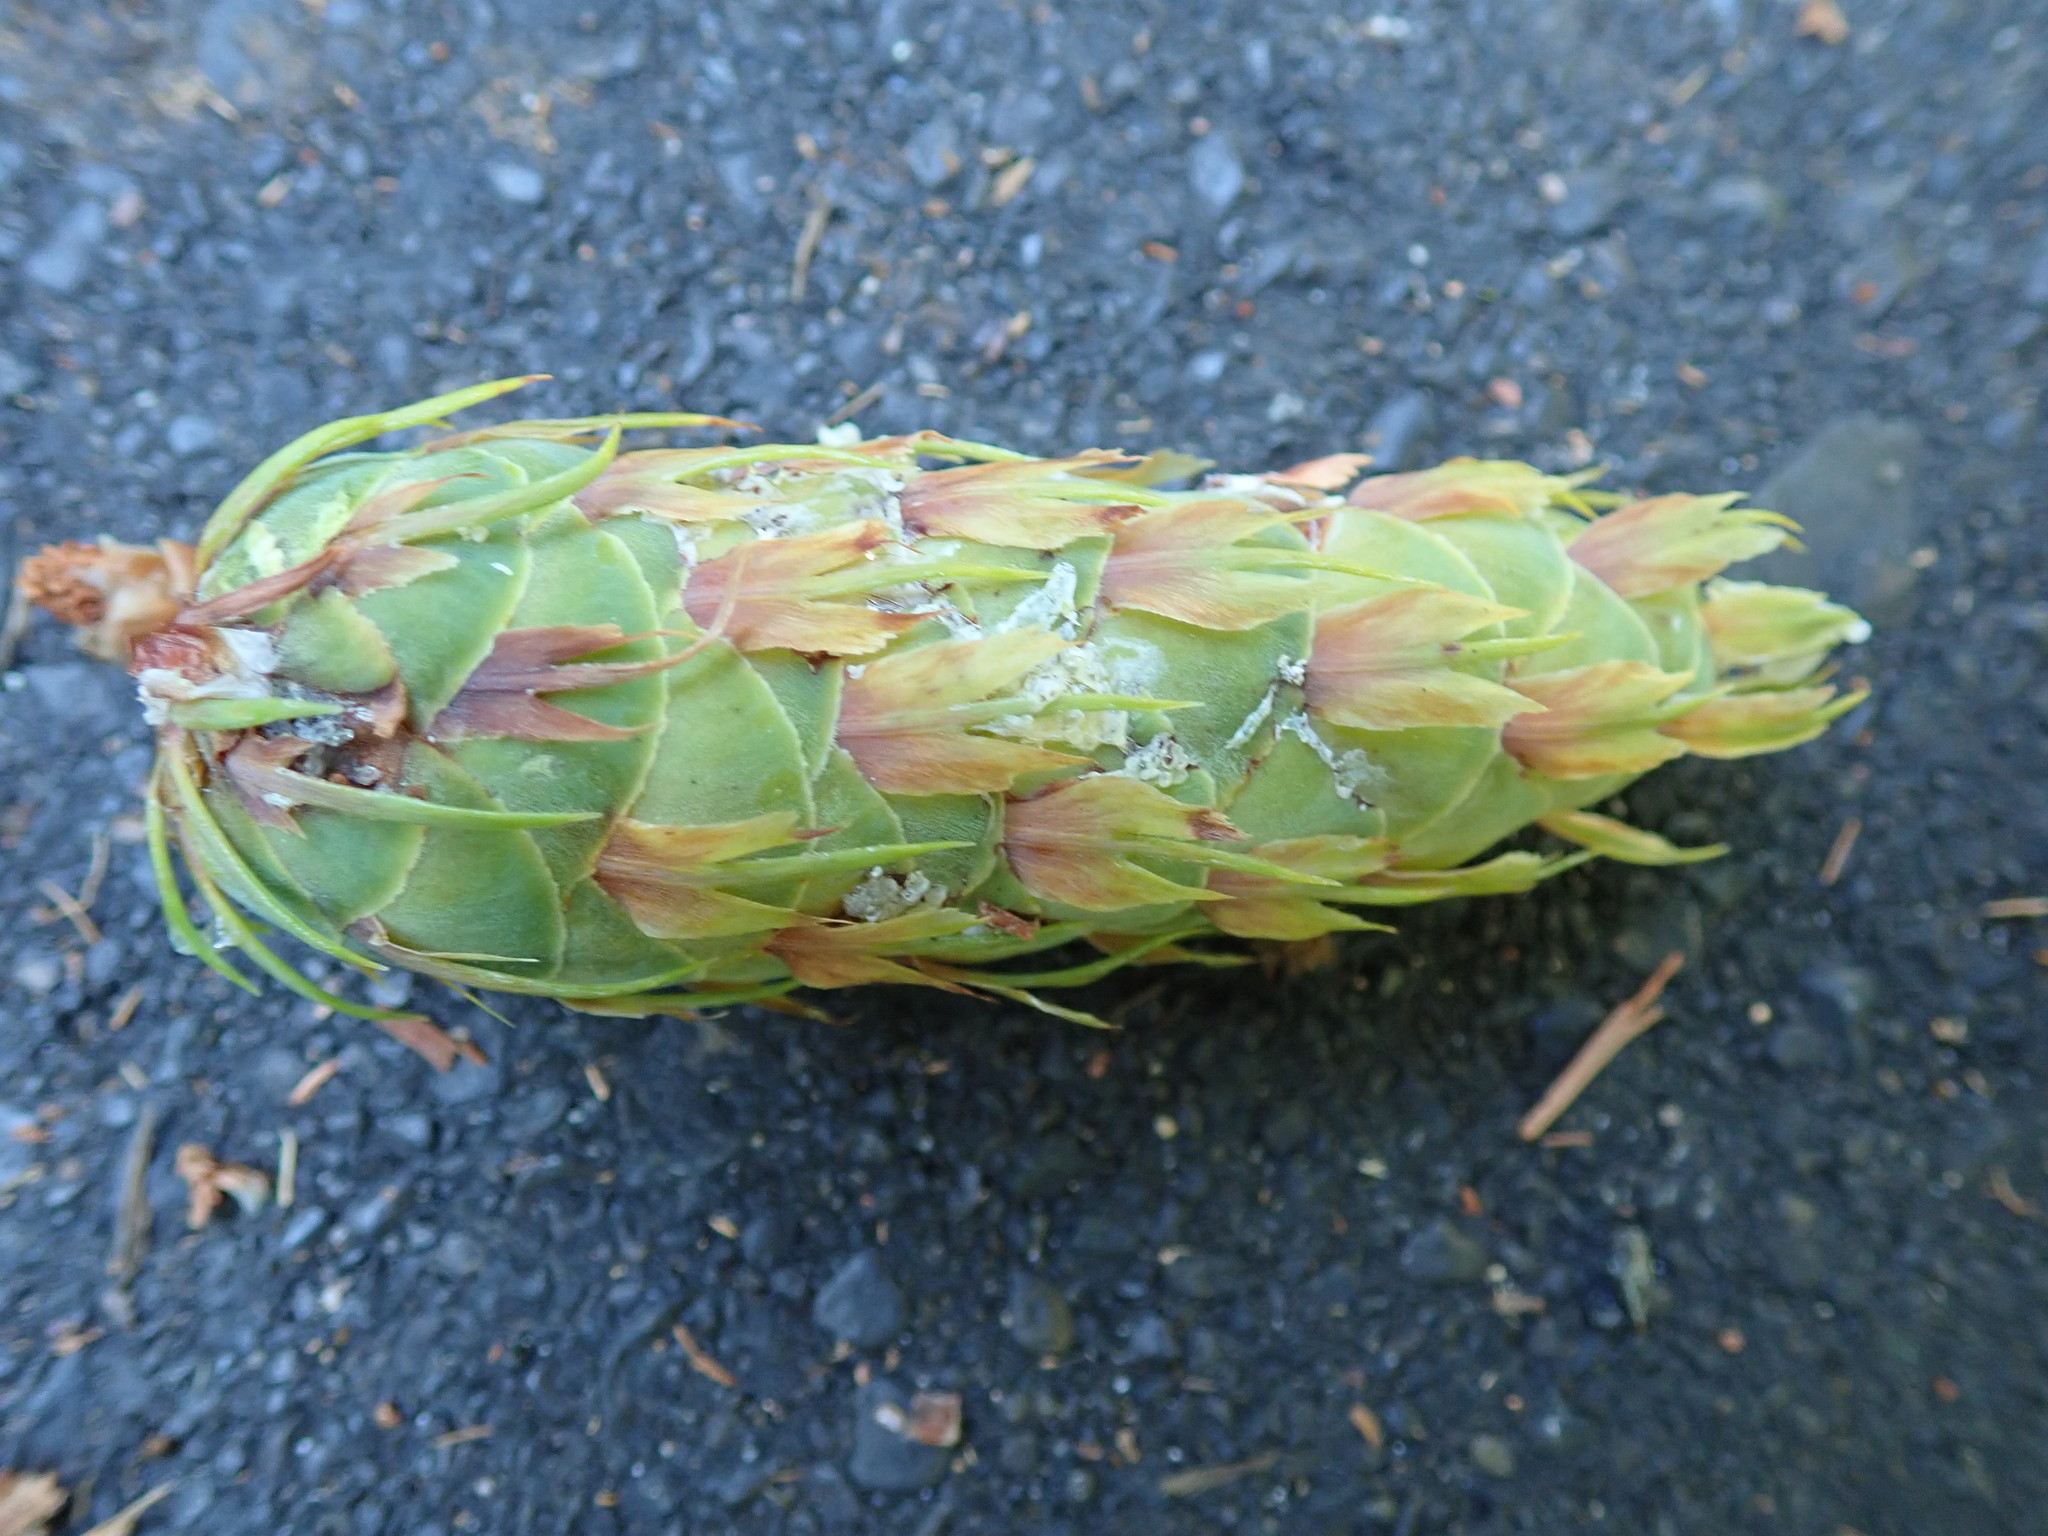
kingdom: Plantae
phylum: Tracheophyta
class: Pinopsida
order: Pinales
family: Pinaceae
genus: Pseudotsuga
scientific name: Pseudotsuga menziesii
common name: Douglas fir
